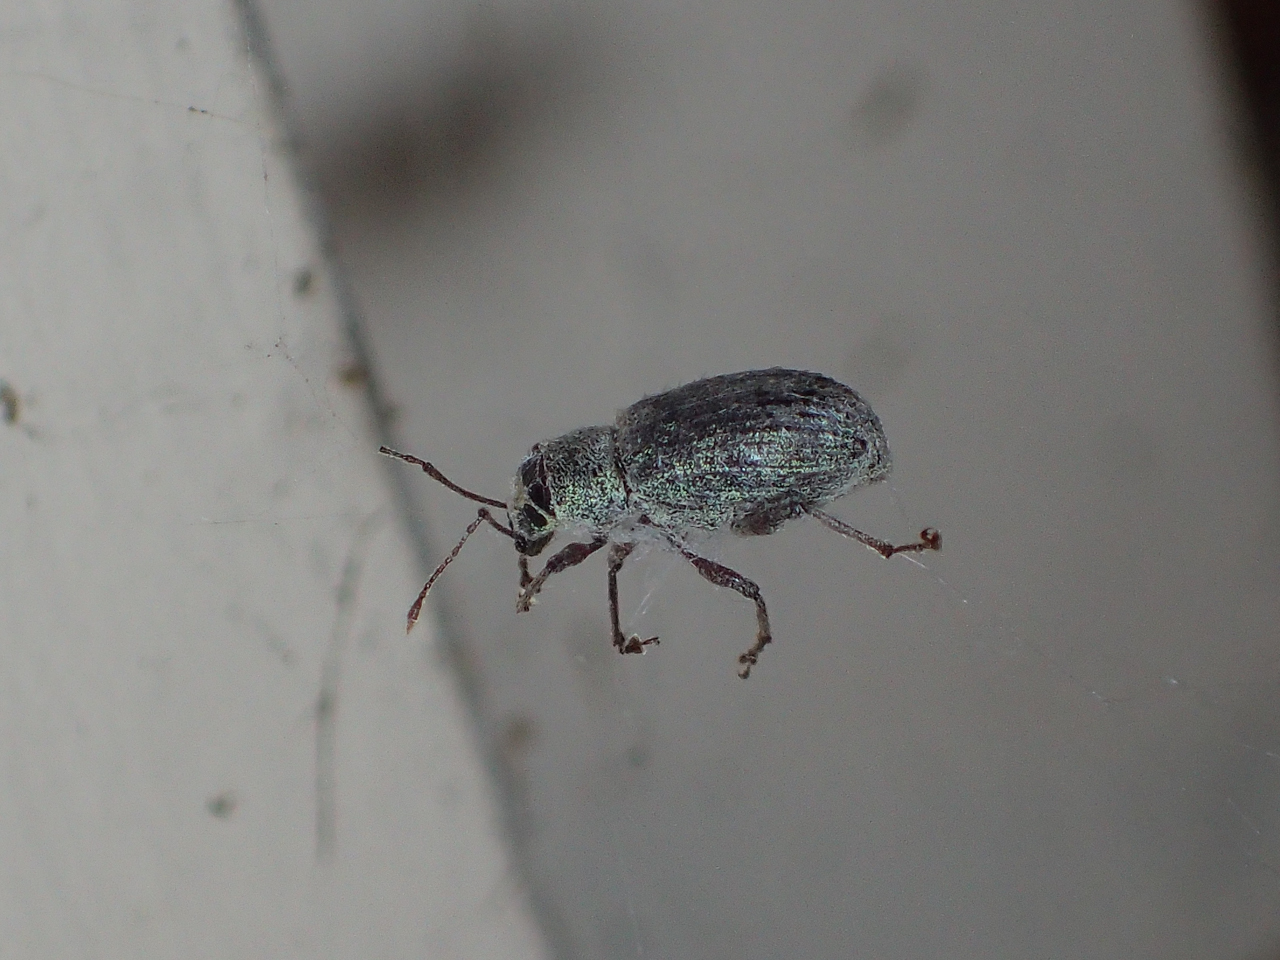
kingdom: Animalia
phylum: Arthropoda
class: Insecta
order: Coleoptera
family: Curculionidae
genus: Cyrtepistomus
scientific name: Cyrtepistomus castaneus
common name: Weevil
